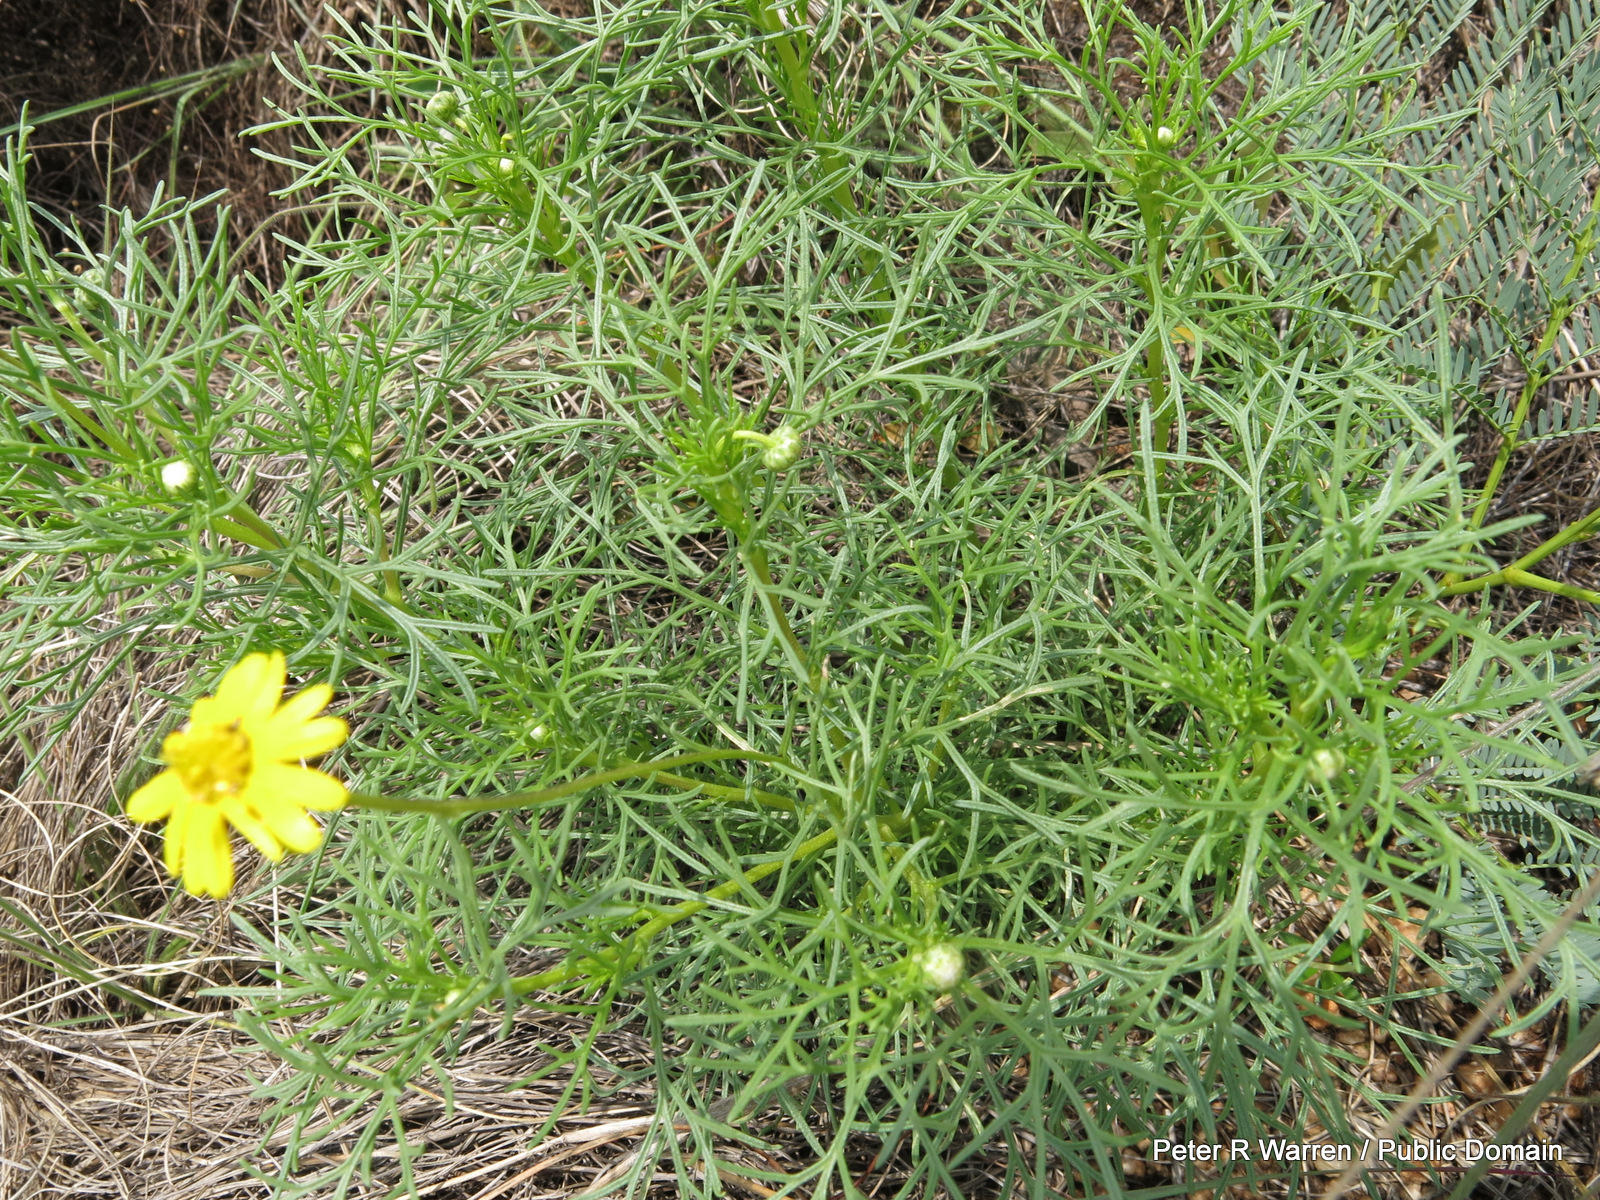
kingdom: Plantae
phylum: Tracheophyta
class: Magnoliopsida
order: Asterales
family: Asteraceae
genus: Ursinia
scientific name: Ursinia nana
